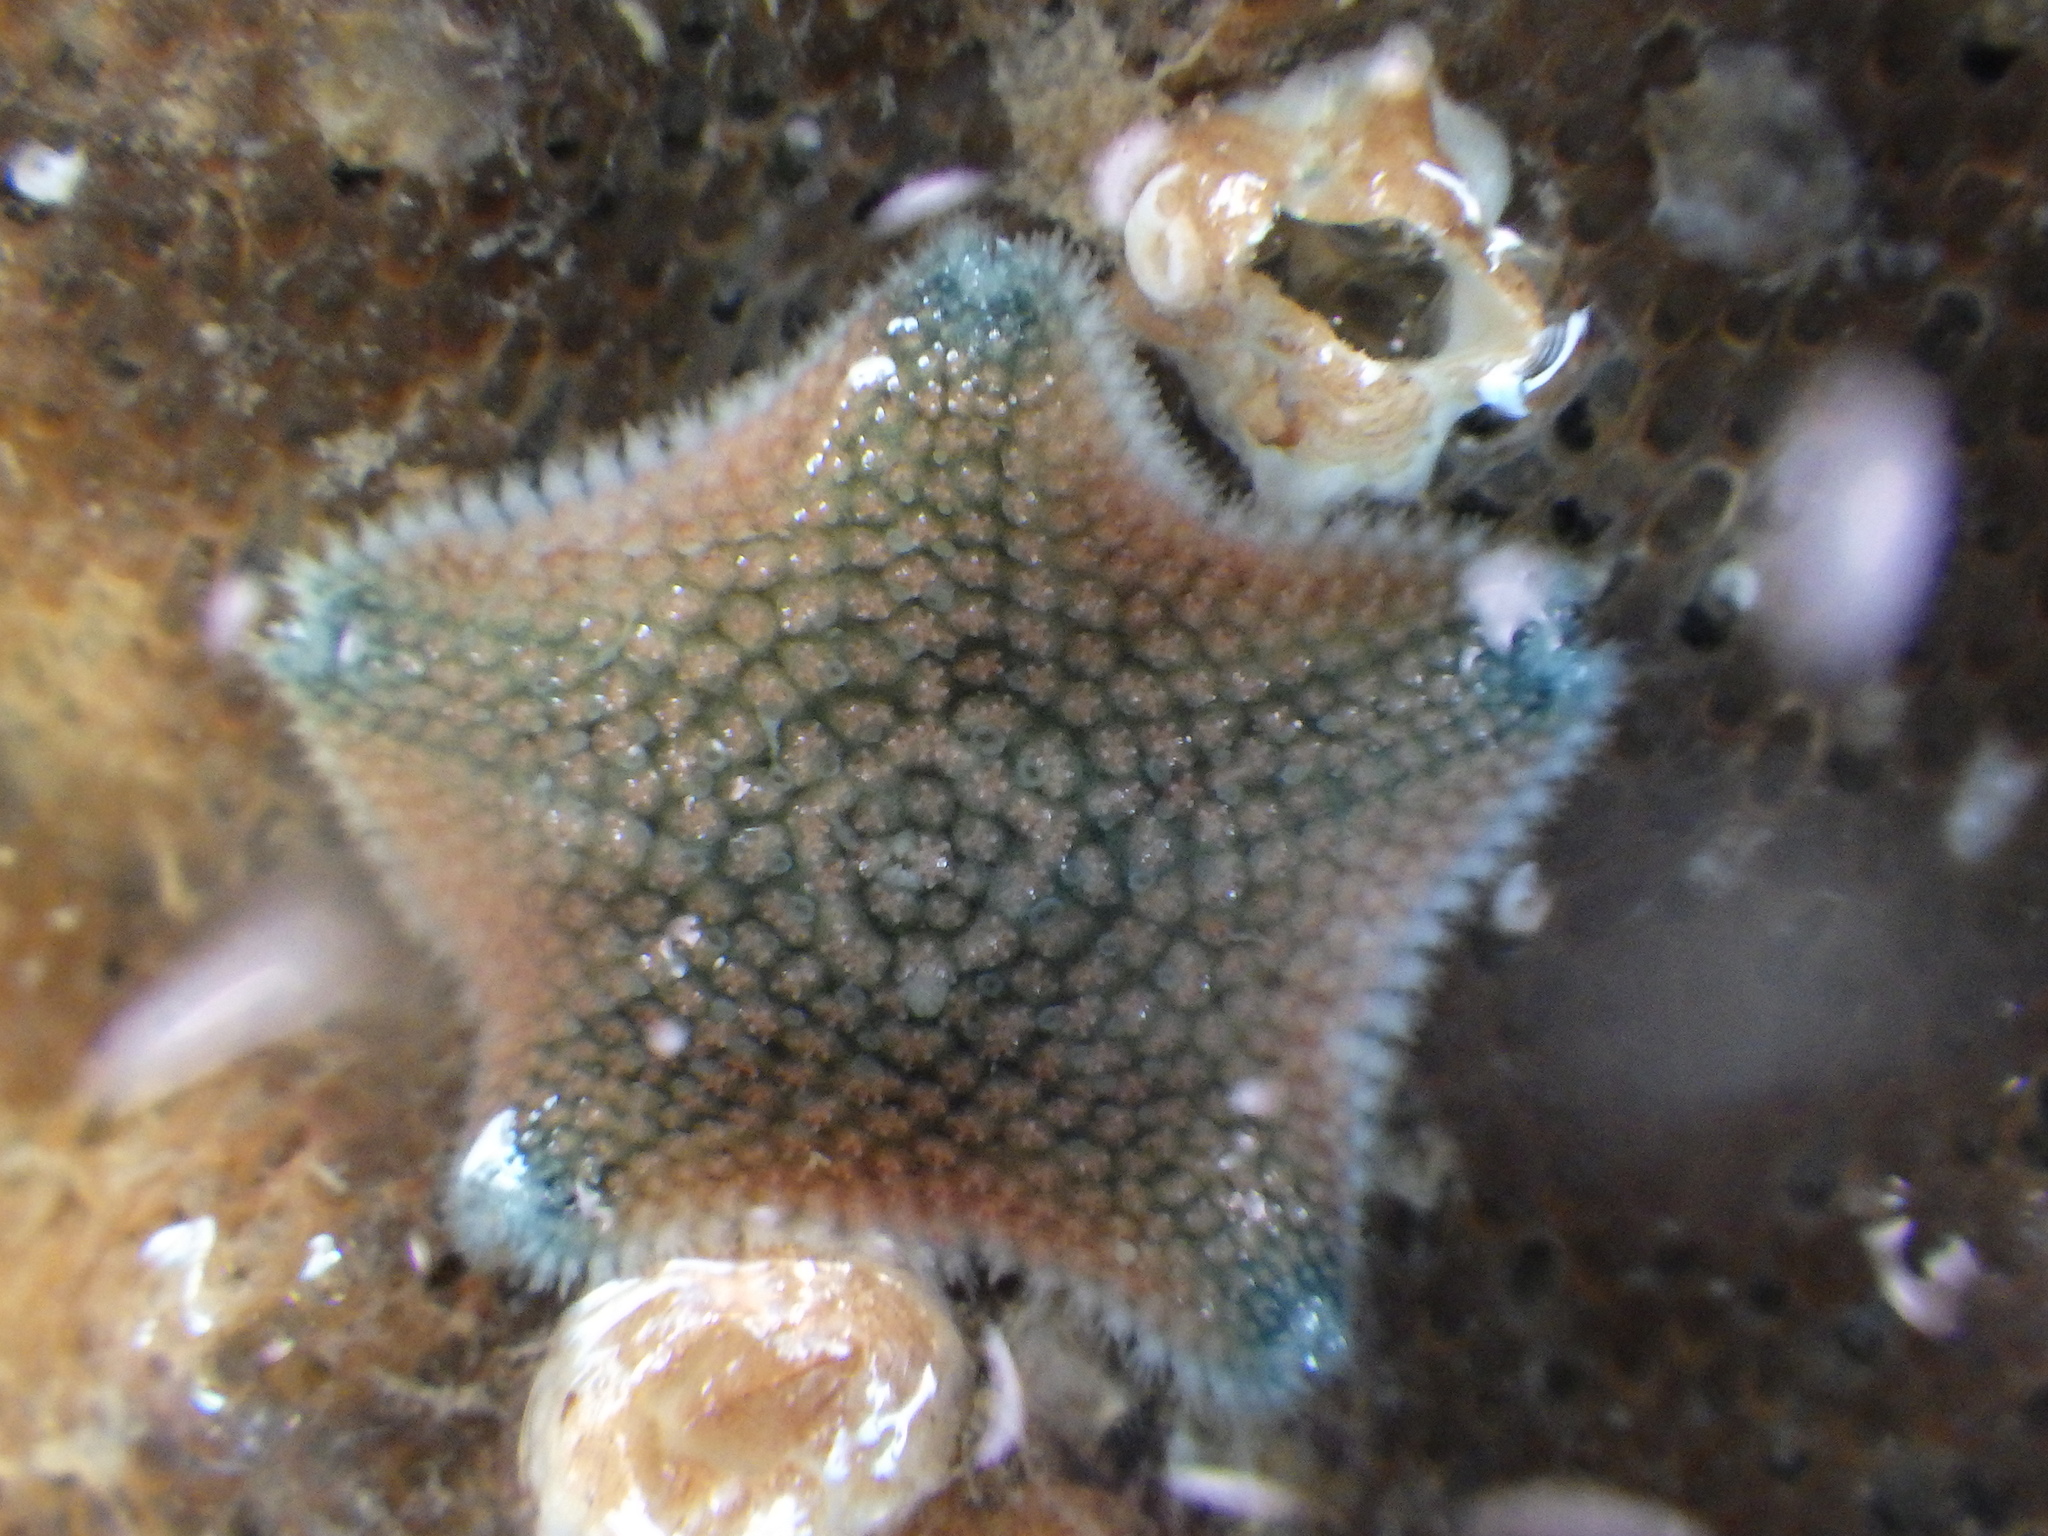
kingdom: Animalia
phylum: Echinodermata
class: Asteroidea
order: Valvatida
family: Asterinidae
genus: Patiriella
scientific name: Patiriella regularis
